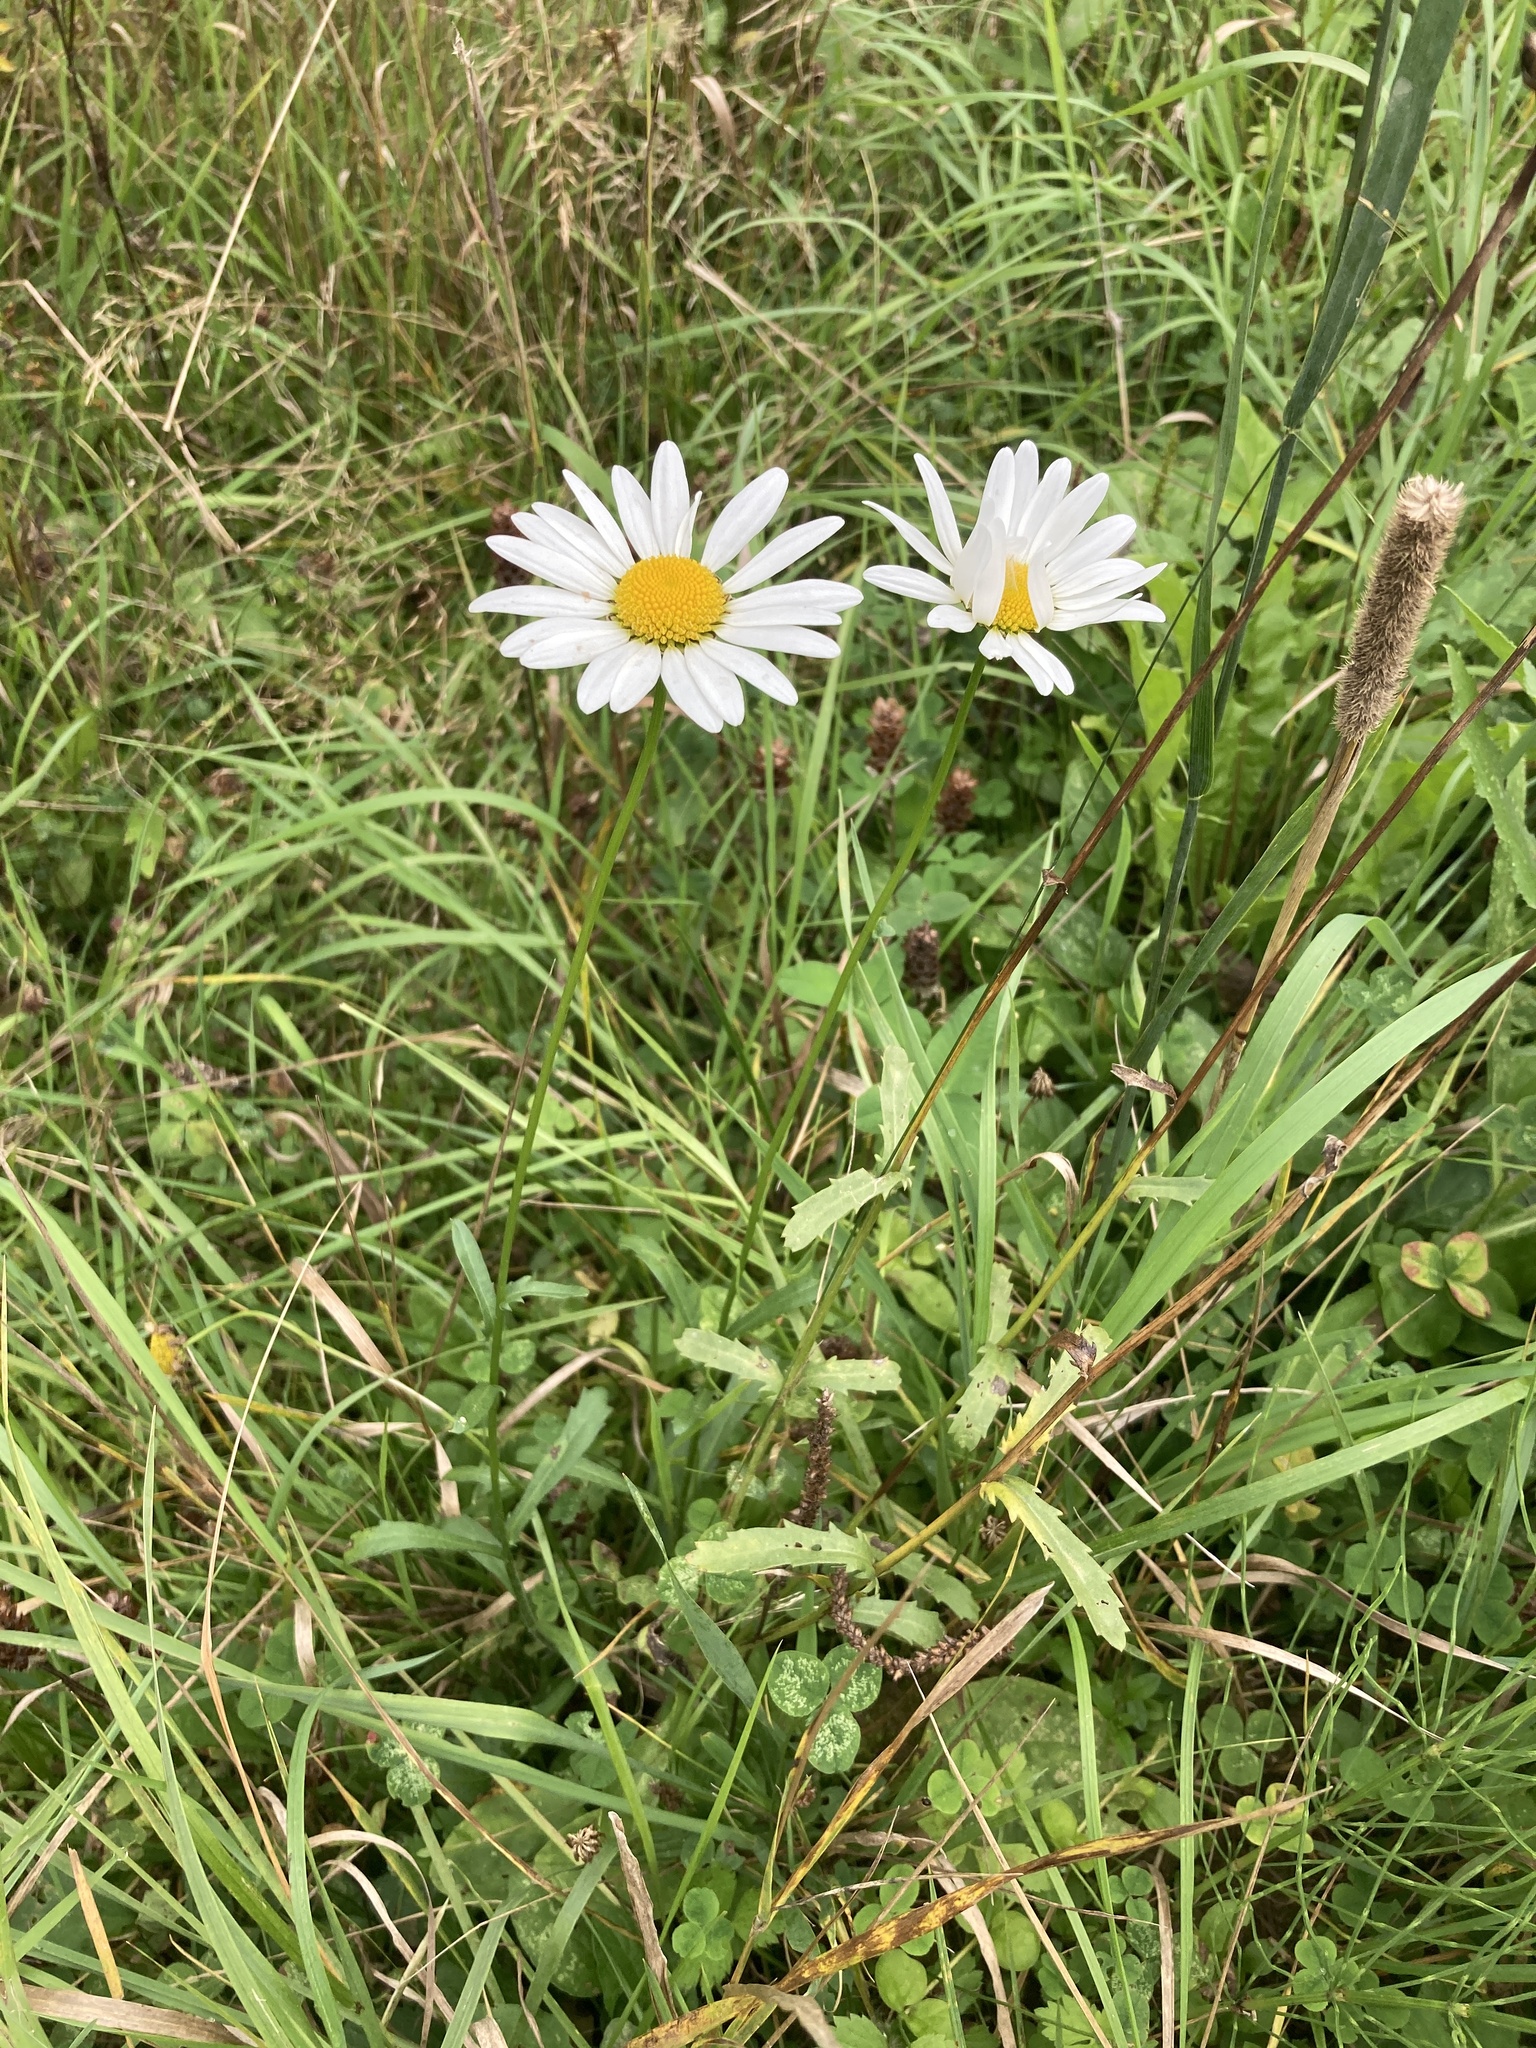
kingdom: Plantae
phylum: Tracheophyta
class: Magnoliopsida
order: Asterales
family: Asteraceae
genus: Leucanthemum
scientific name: Leucanthemum vulgare
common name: Oxeye daisy
